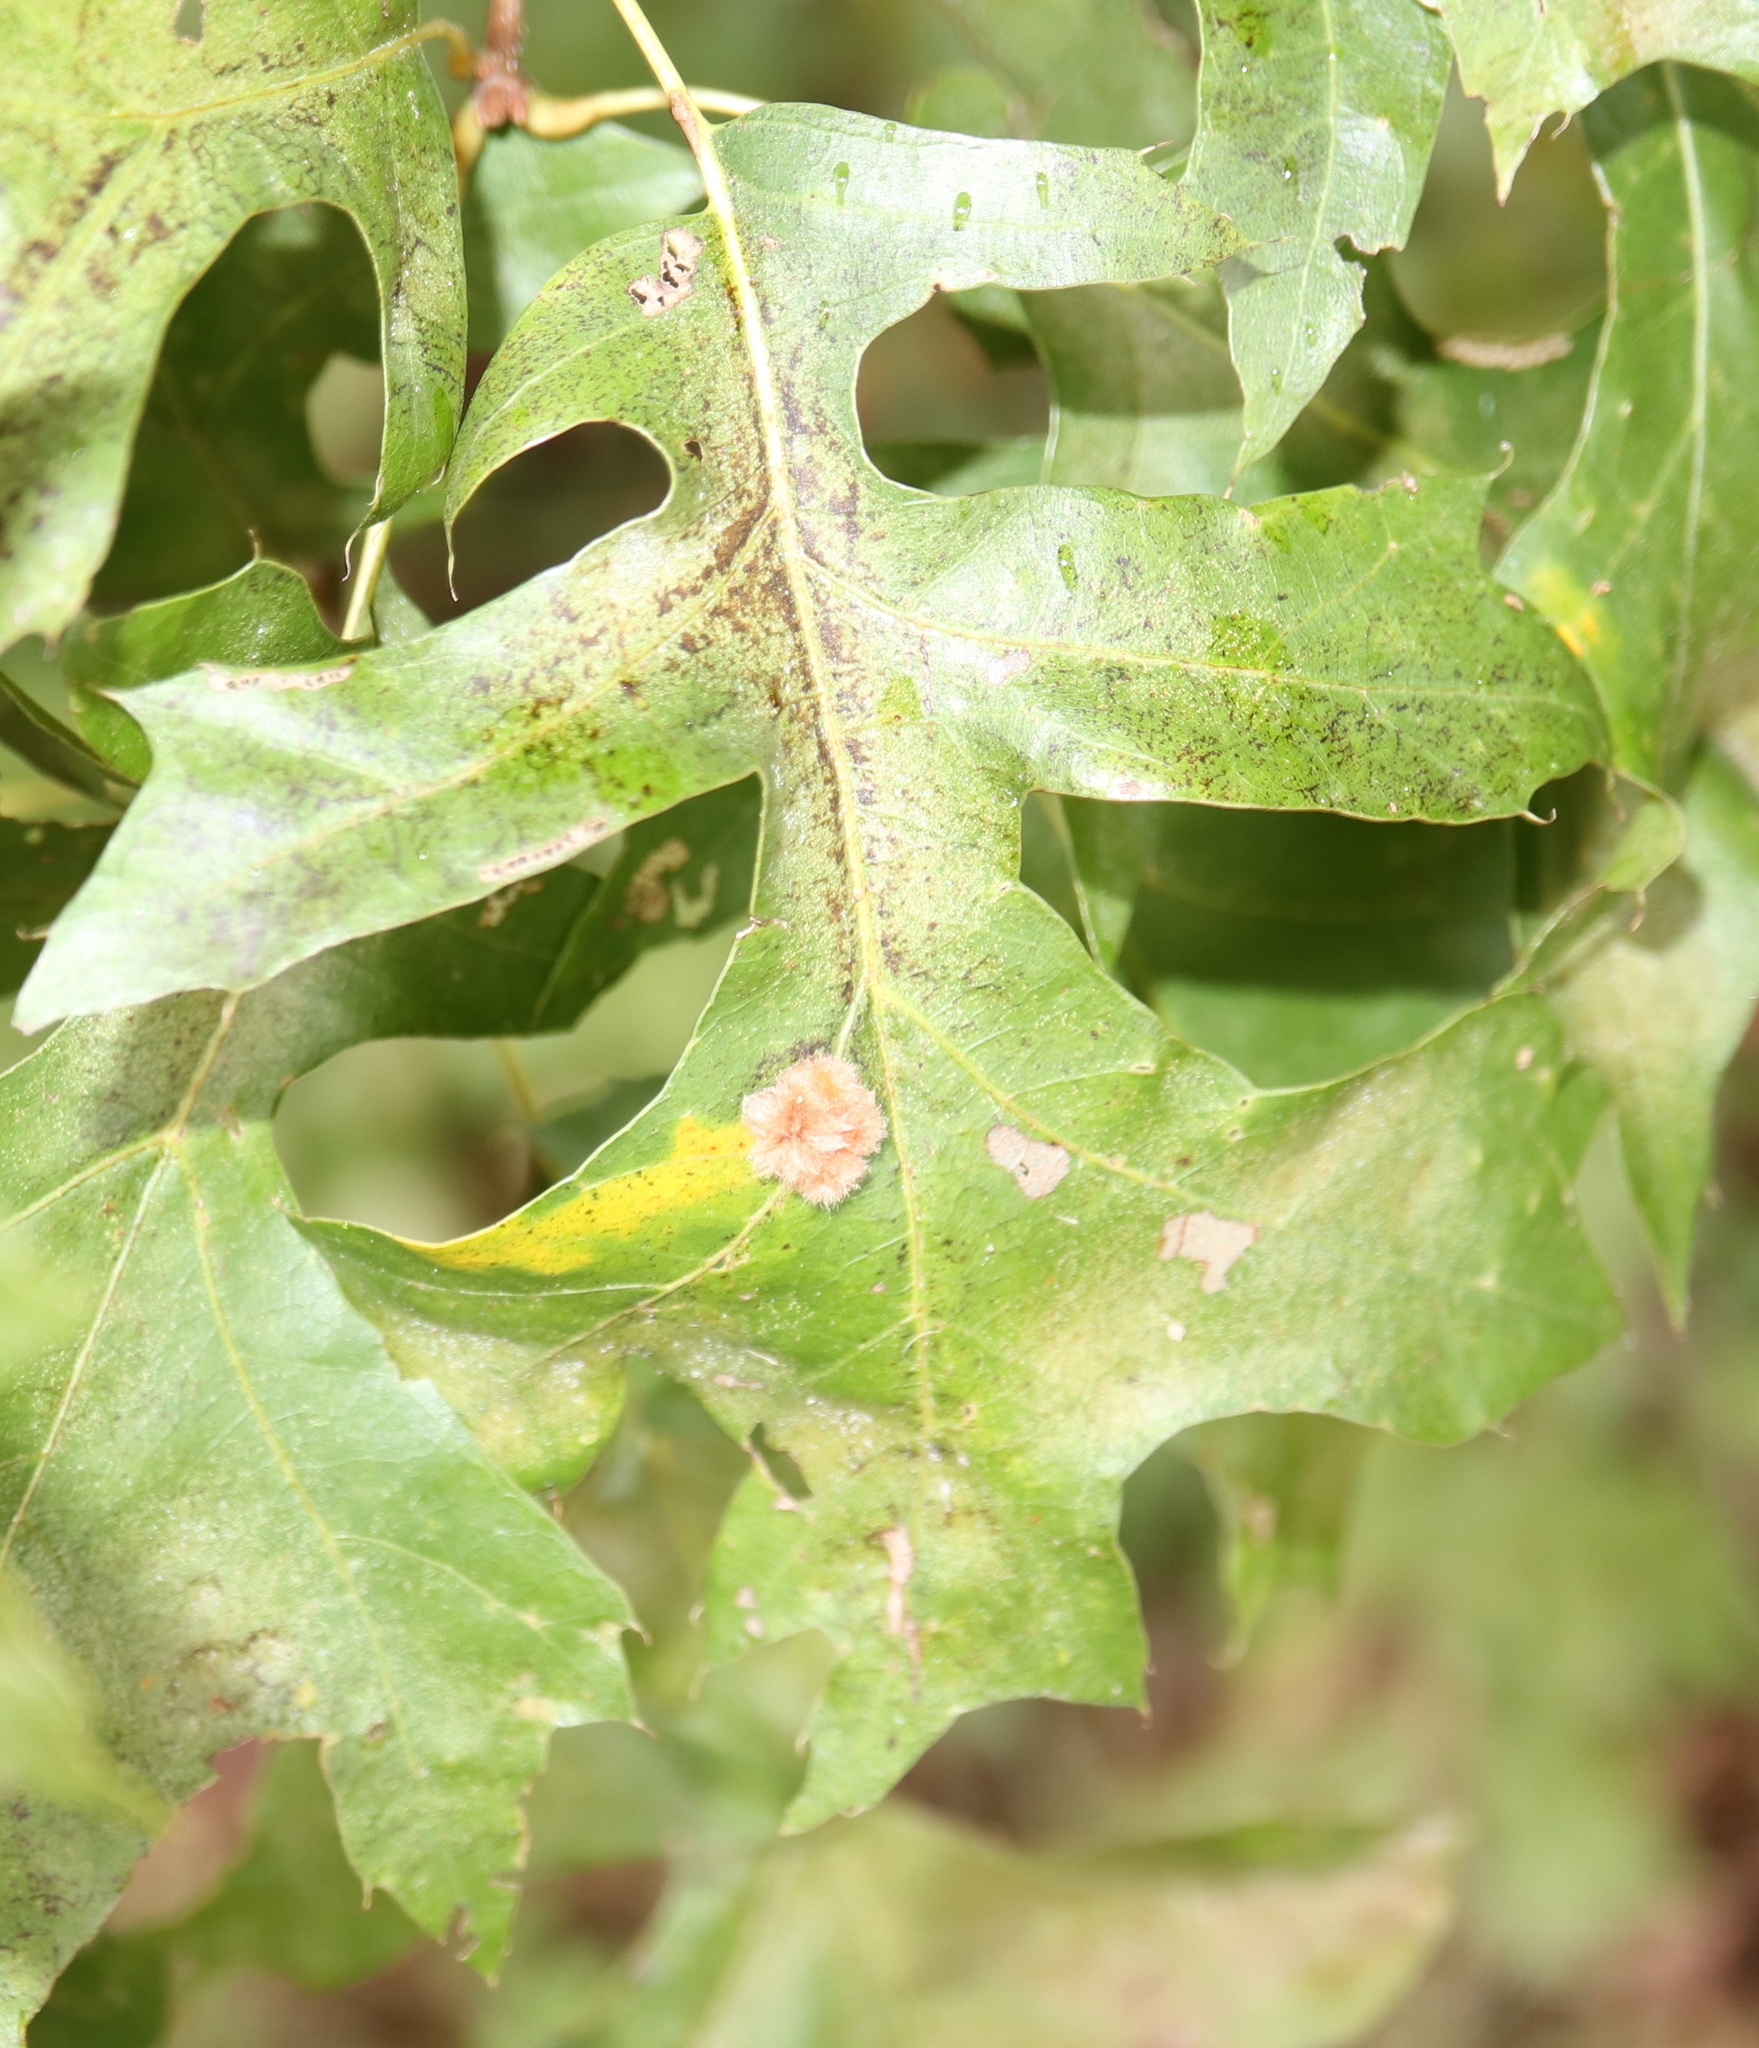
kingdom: Animalia
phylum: Arthropoda
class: Insecta
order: Hymenoptera
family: Cynipidae
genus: Zopheroteras
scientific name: Zopheroteras
